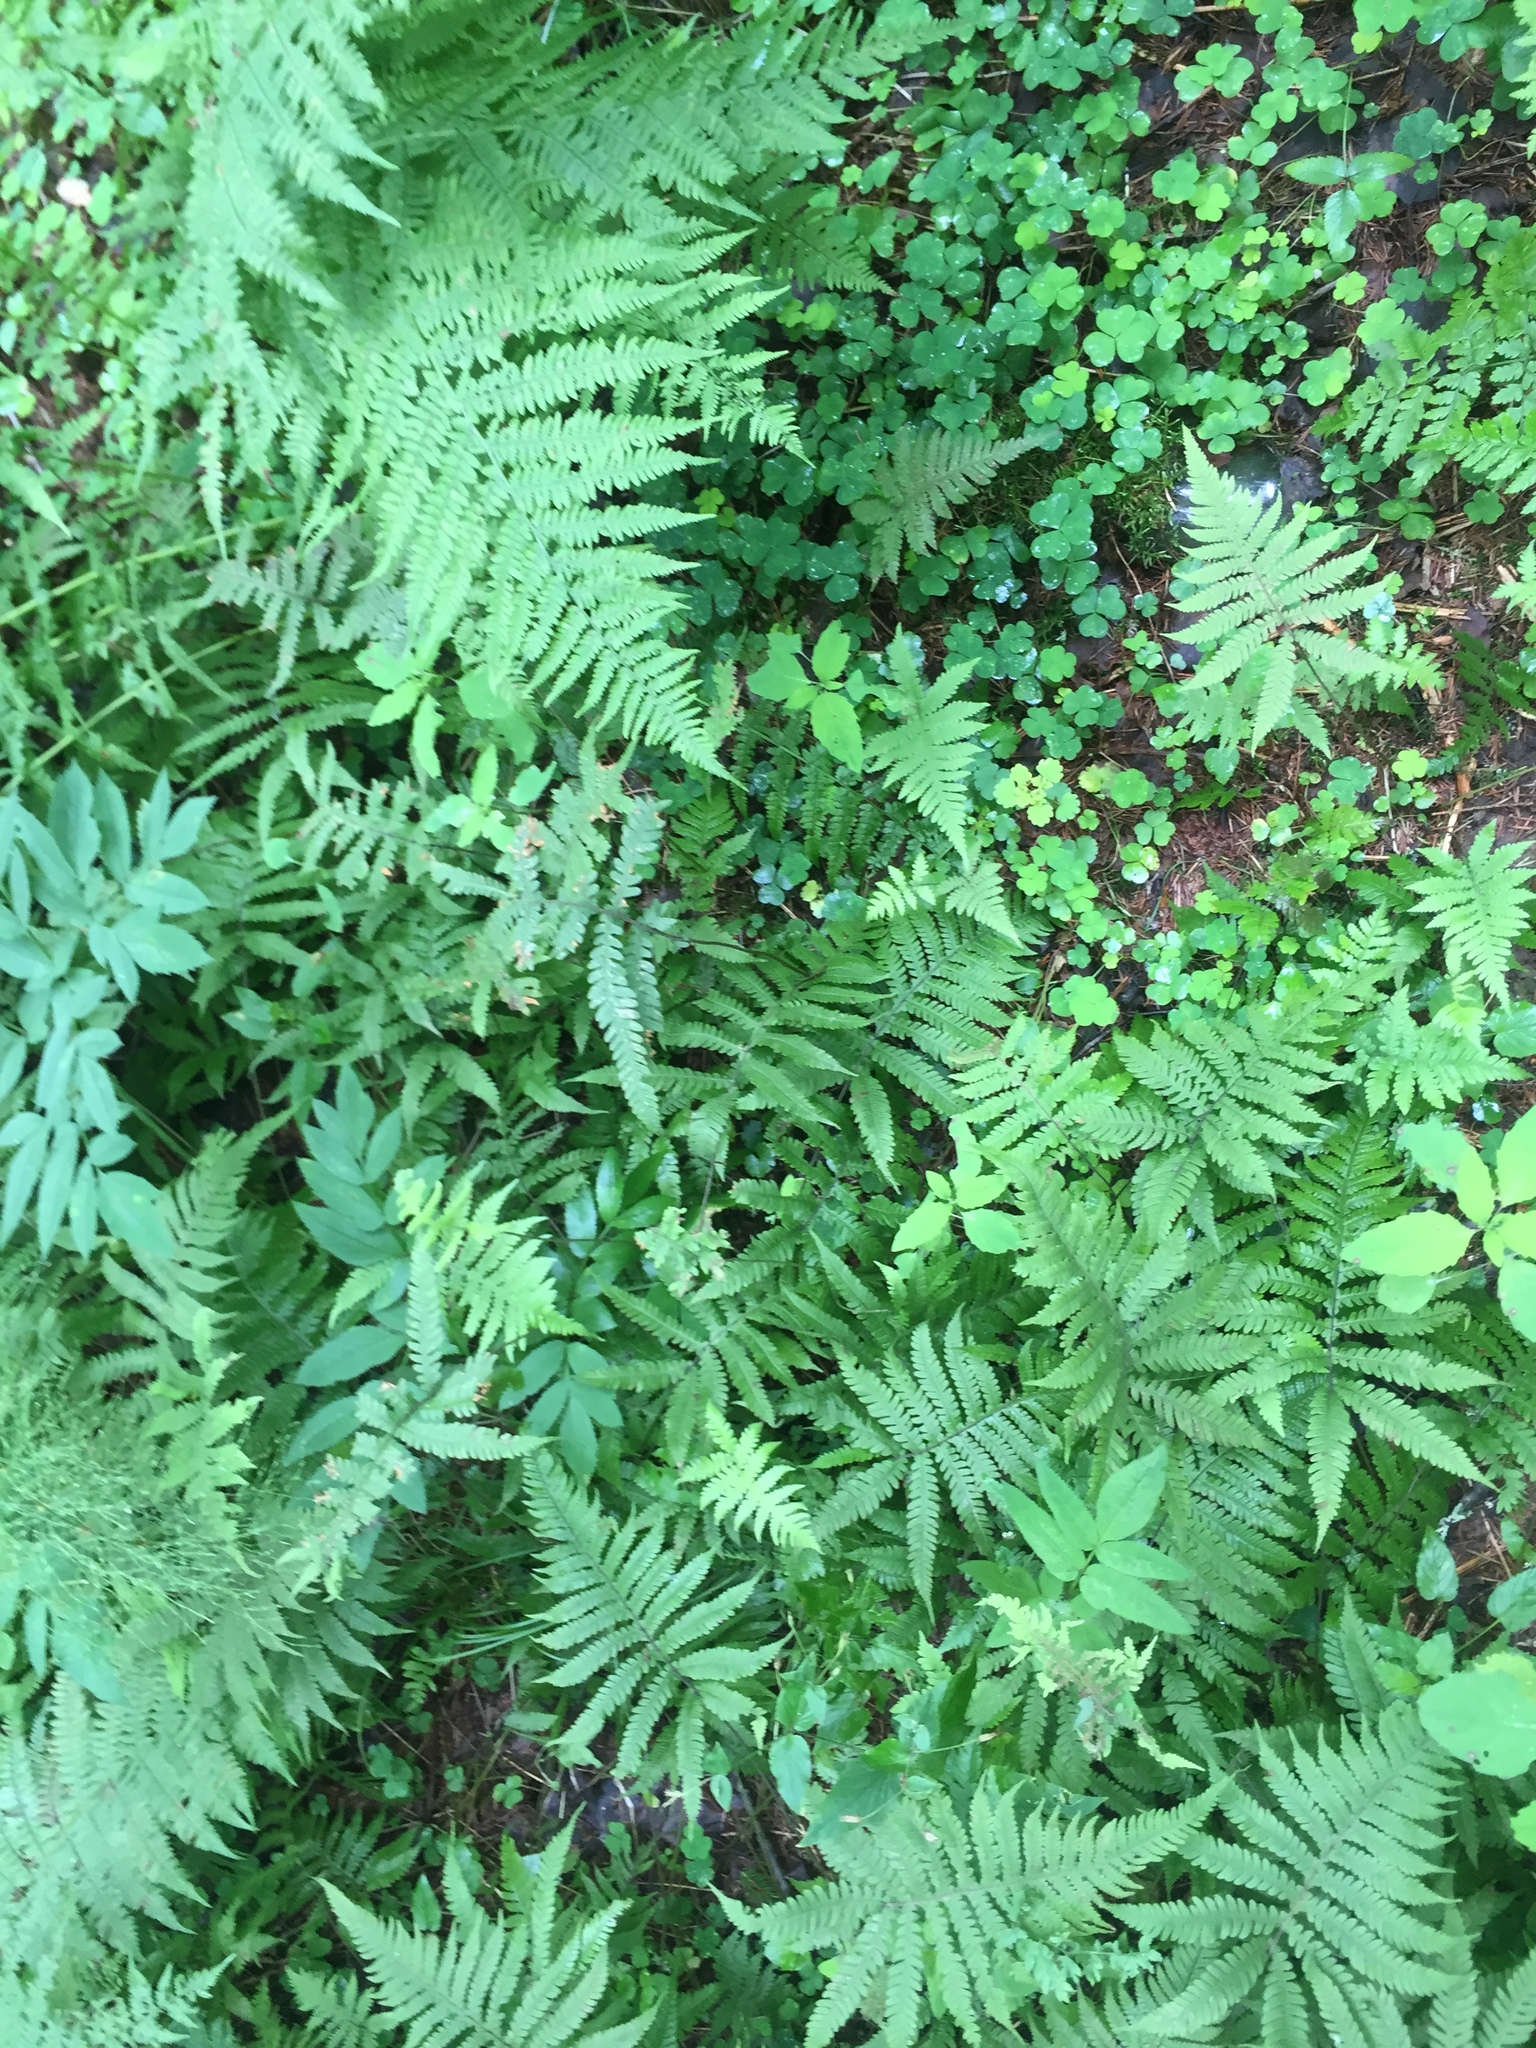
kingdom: Plantae
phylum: Tracheophyta
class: Polypodiopsida
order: Polypodiales
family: Thelypteridaceae
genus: Phegopteris
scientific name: Phegopteris connectilis
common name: Beech fern
